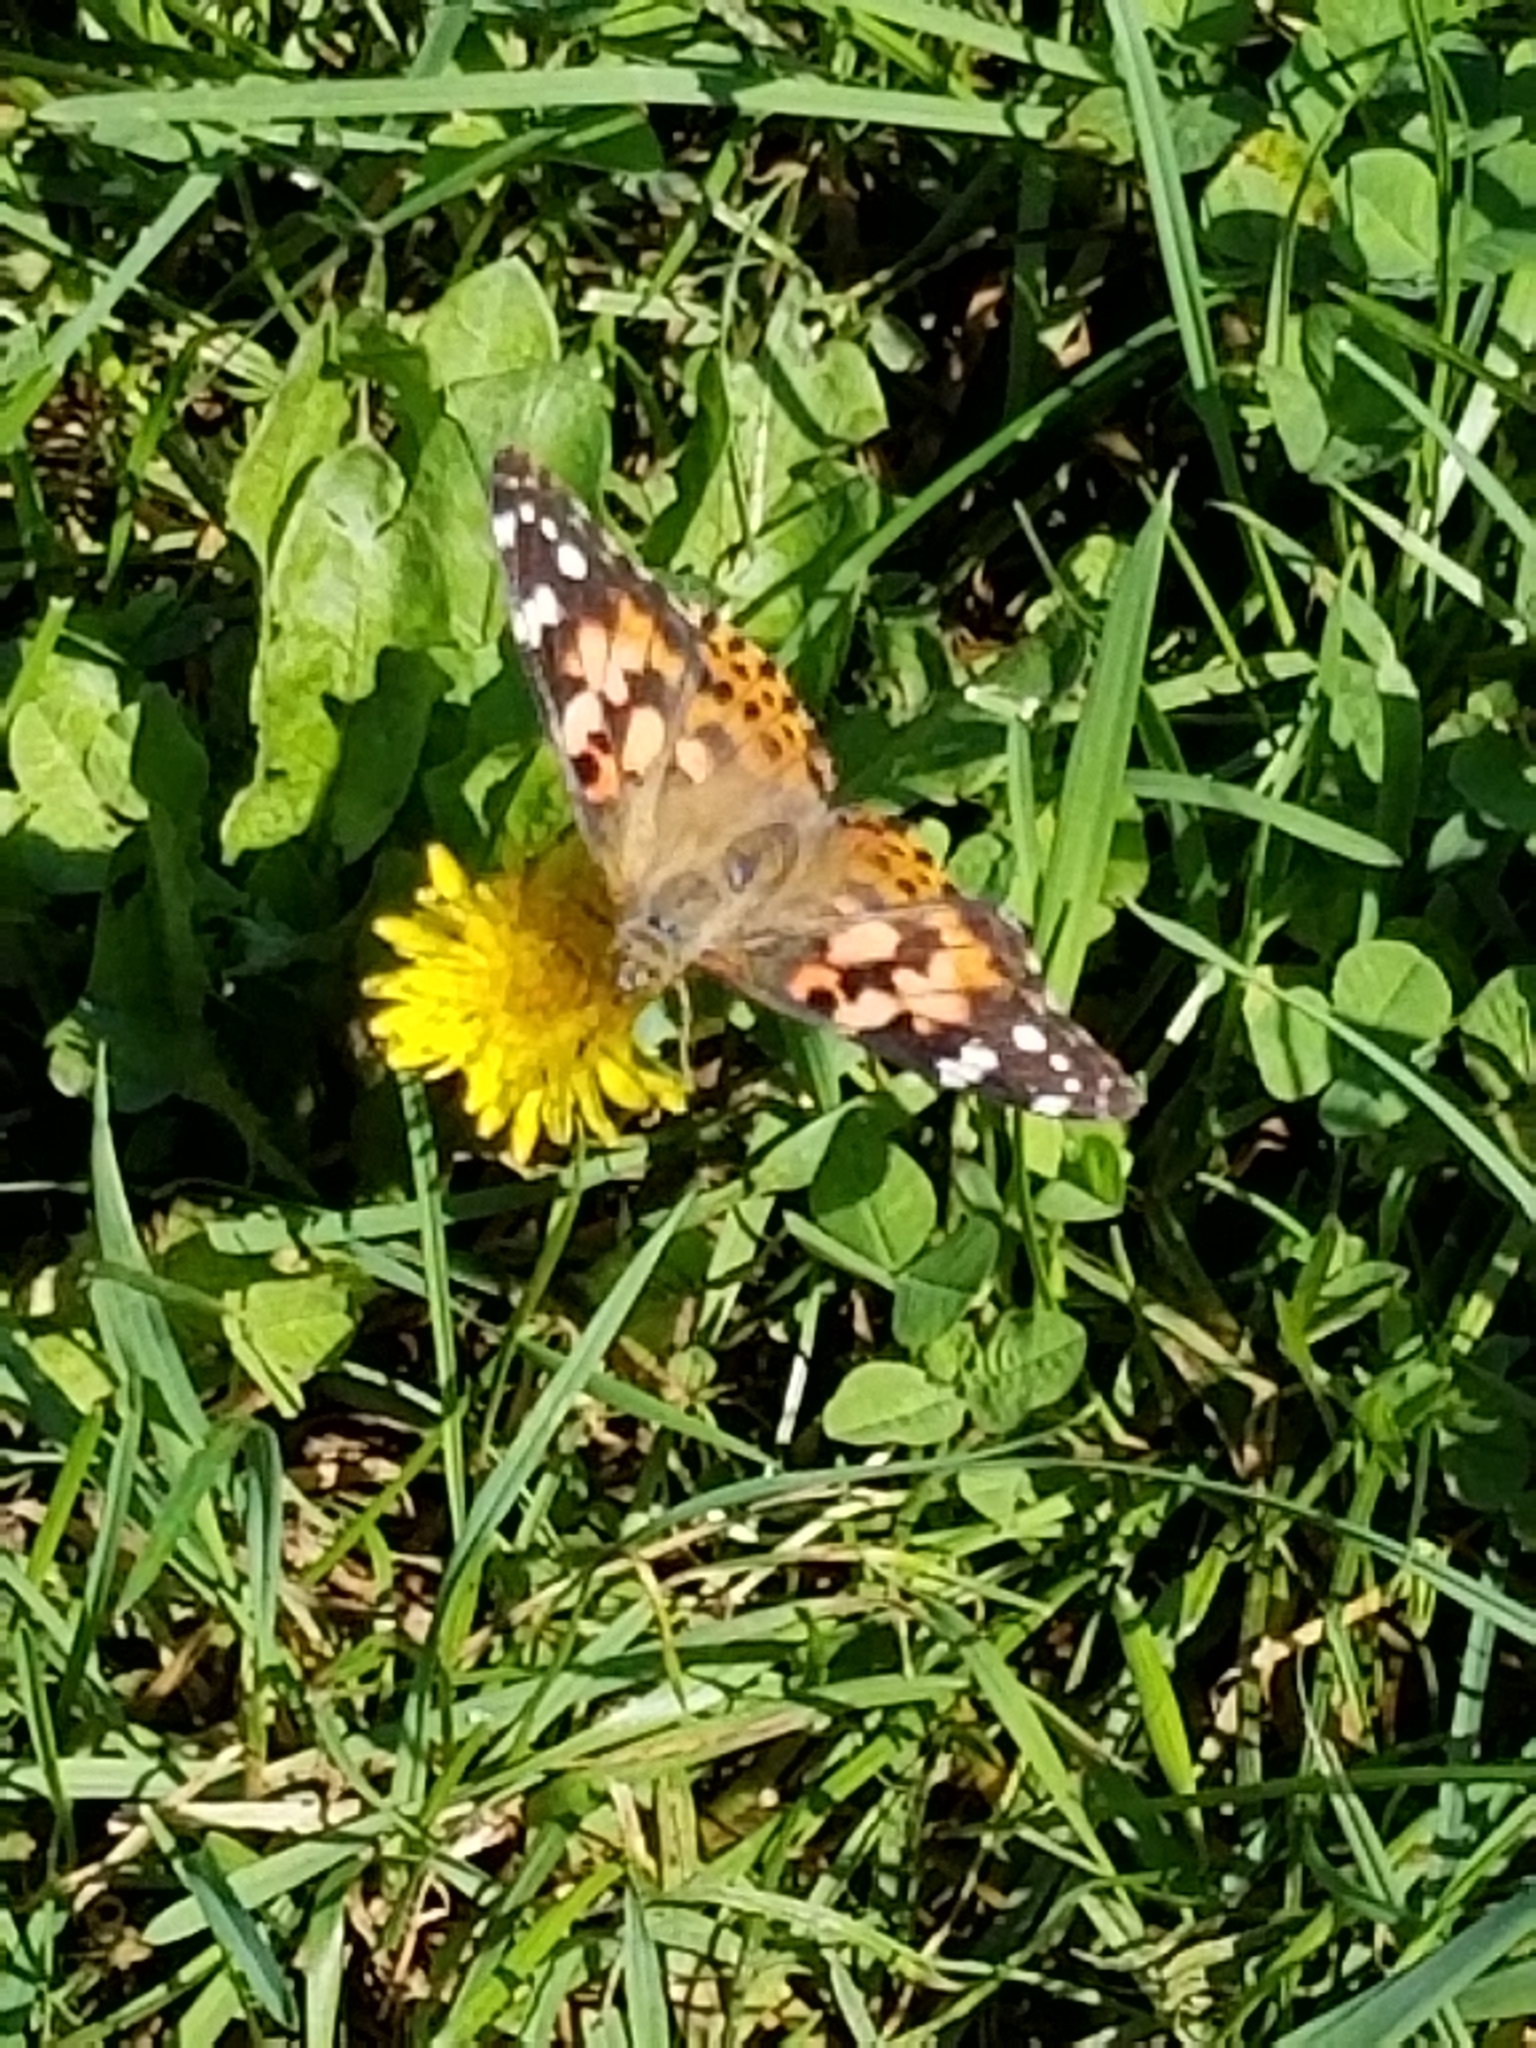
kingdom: Animalia
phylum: Arthropoda
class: Insecta
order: Lepidoptera
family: Nymphalidae
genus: Vanessa
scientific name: Vanessa cardui
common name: Painted lady
